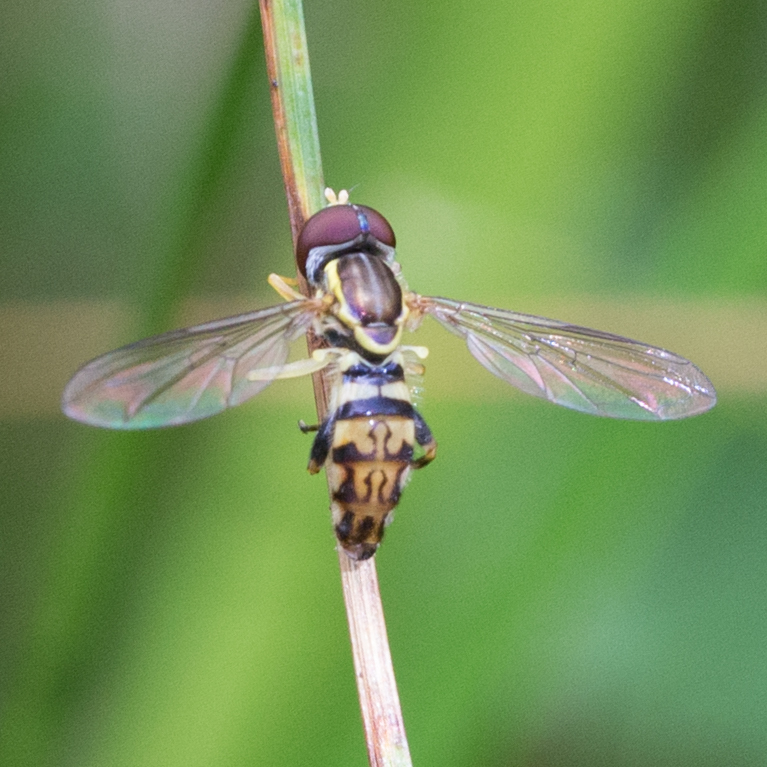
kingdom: Animalia
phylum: Arthropoda
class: Insecta
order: Diptera
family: Syrphidae
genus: Toxomerus
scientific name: Toxomerus geminatus
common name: Eastern calligrapher
